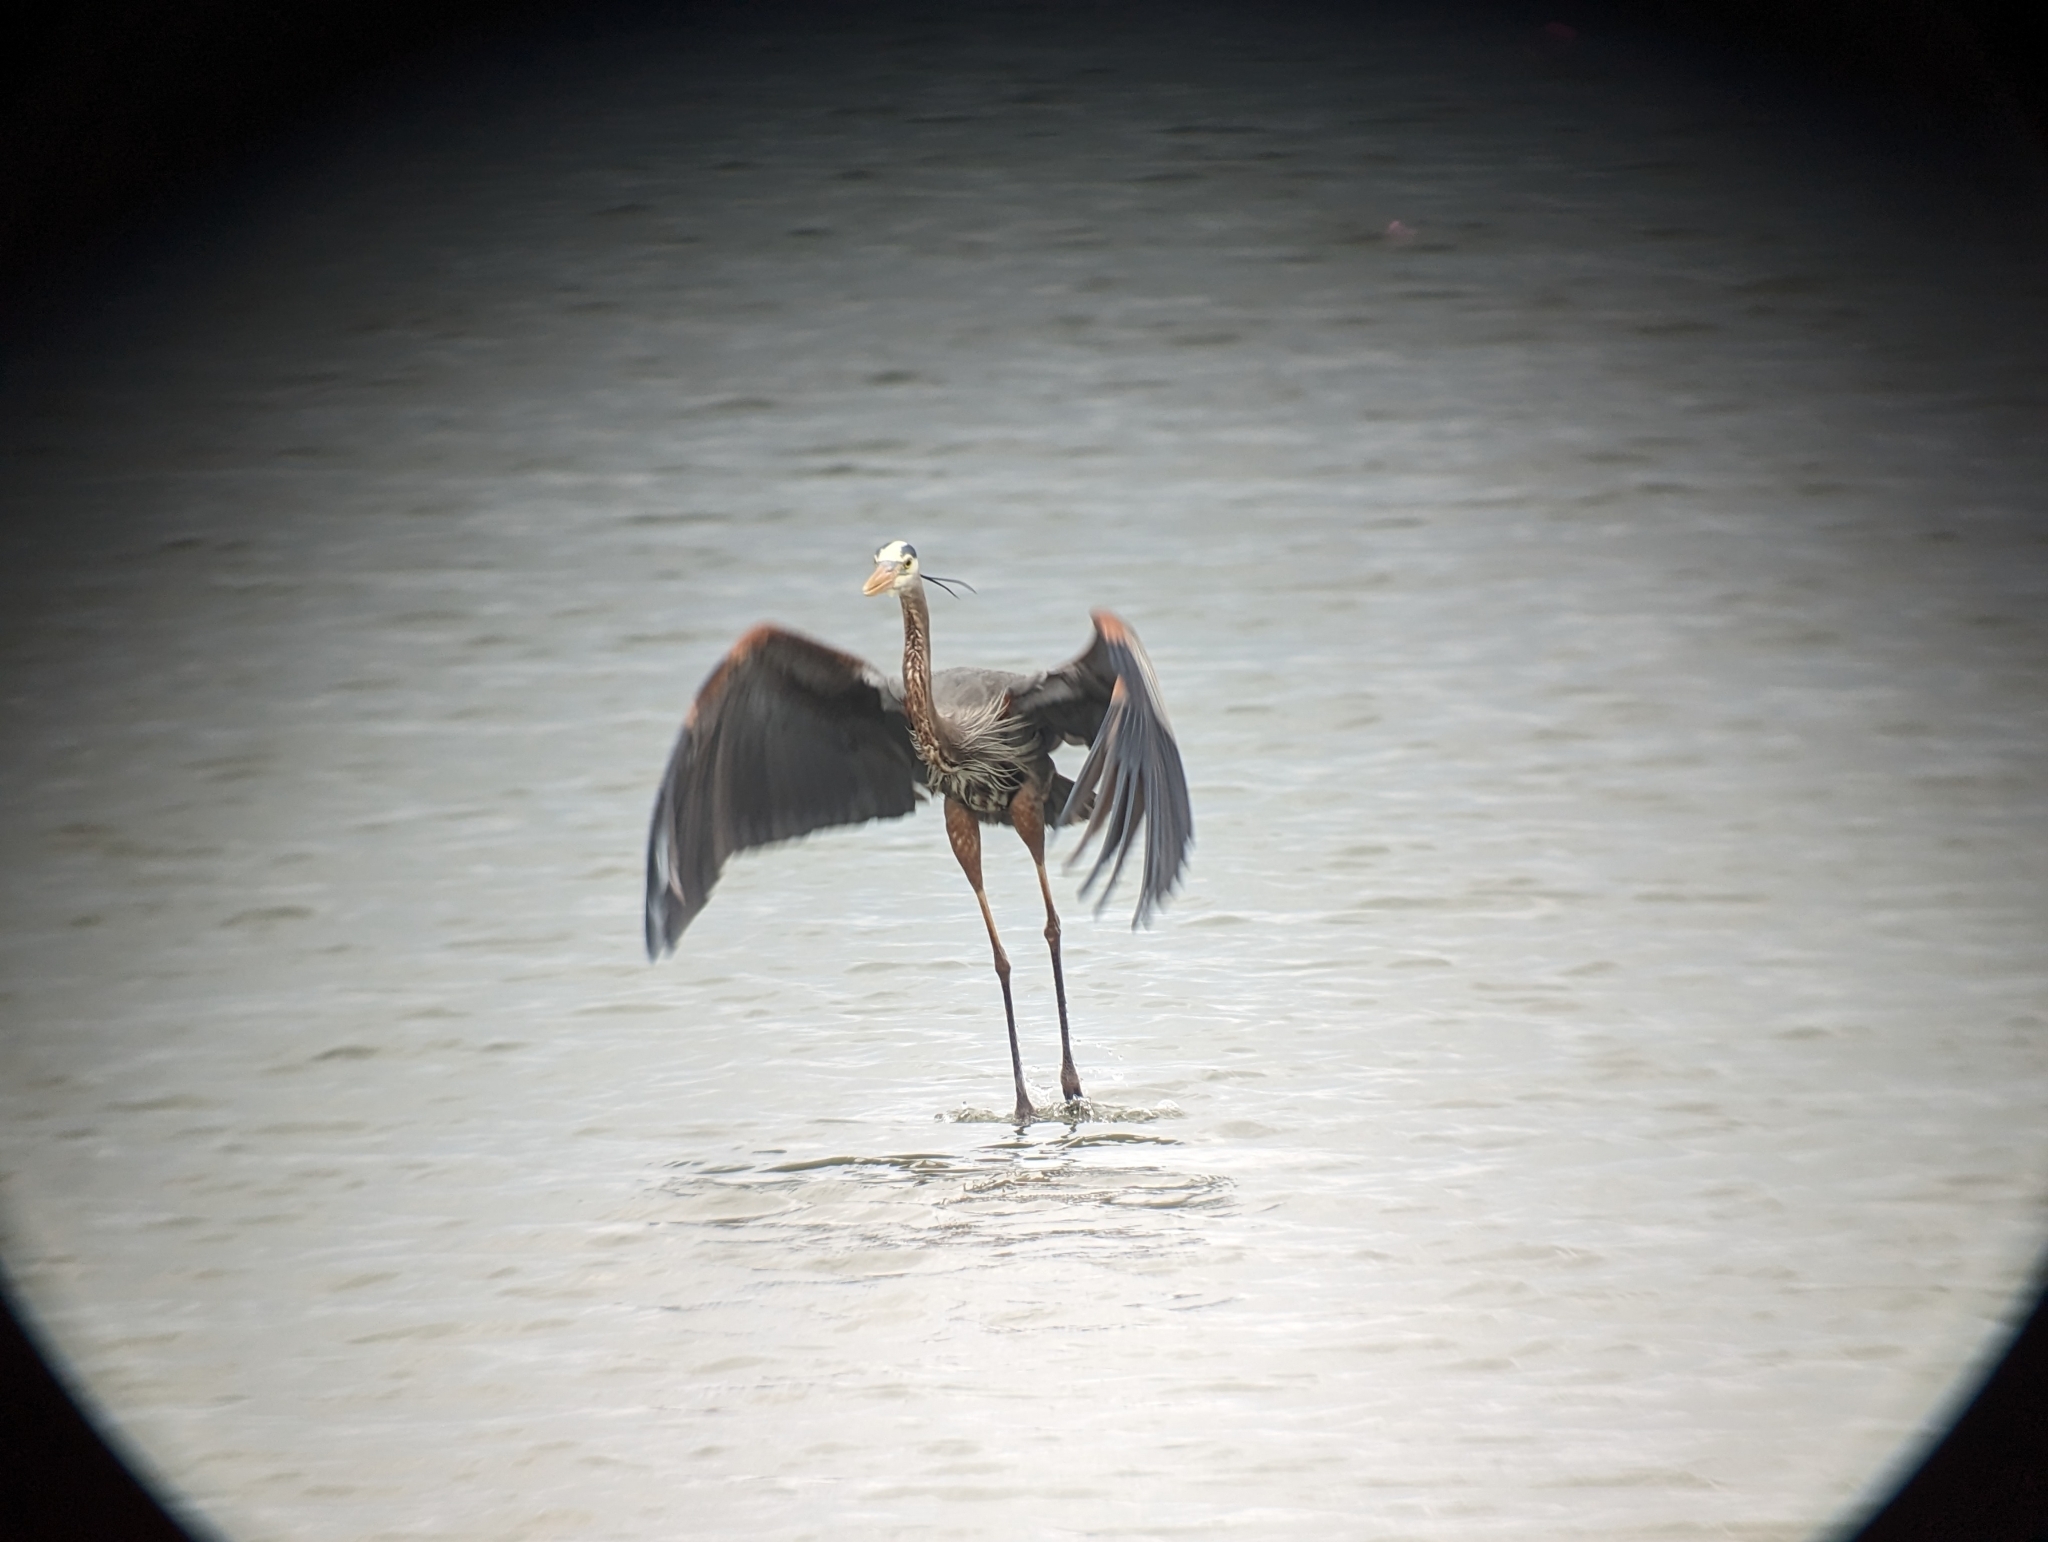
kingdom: Animalia
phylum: Chordata
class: Aves
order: Pelecaniformes
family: Ardeidae
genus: Ardea
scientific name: Ardea herodias
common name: Great blue heron
